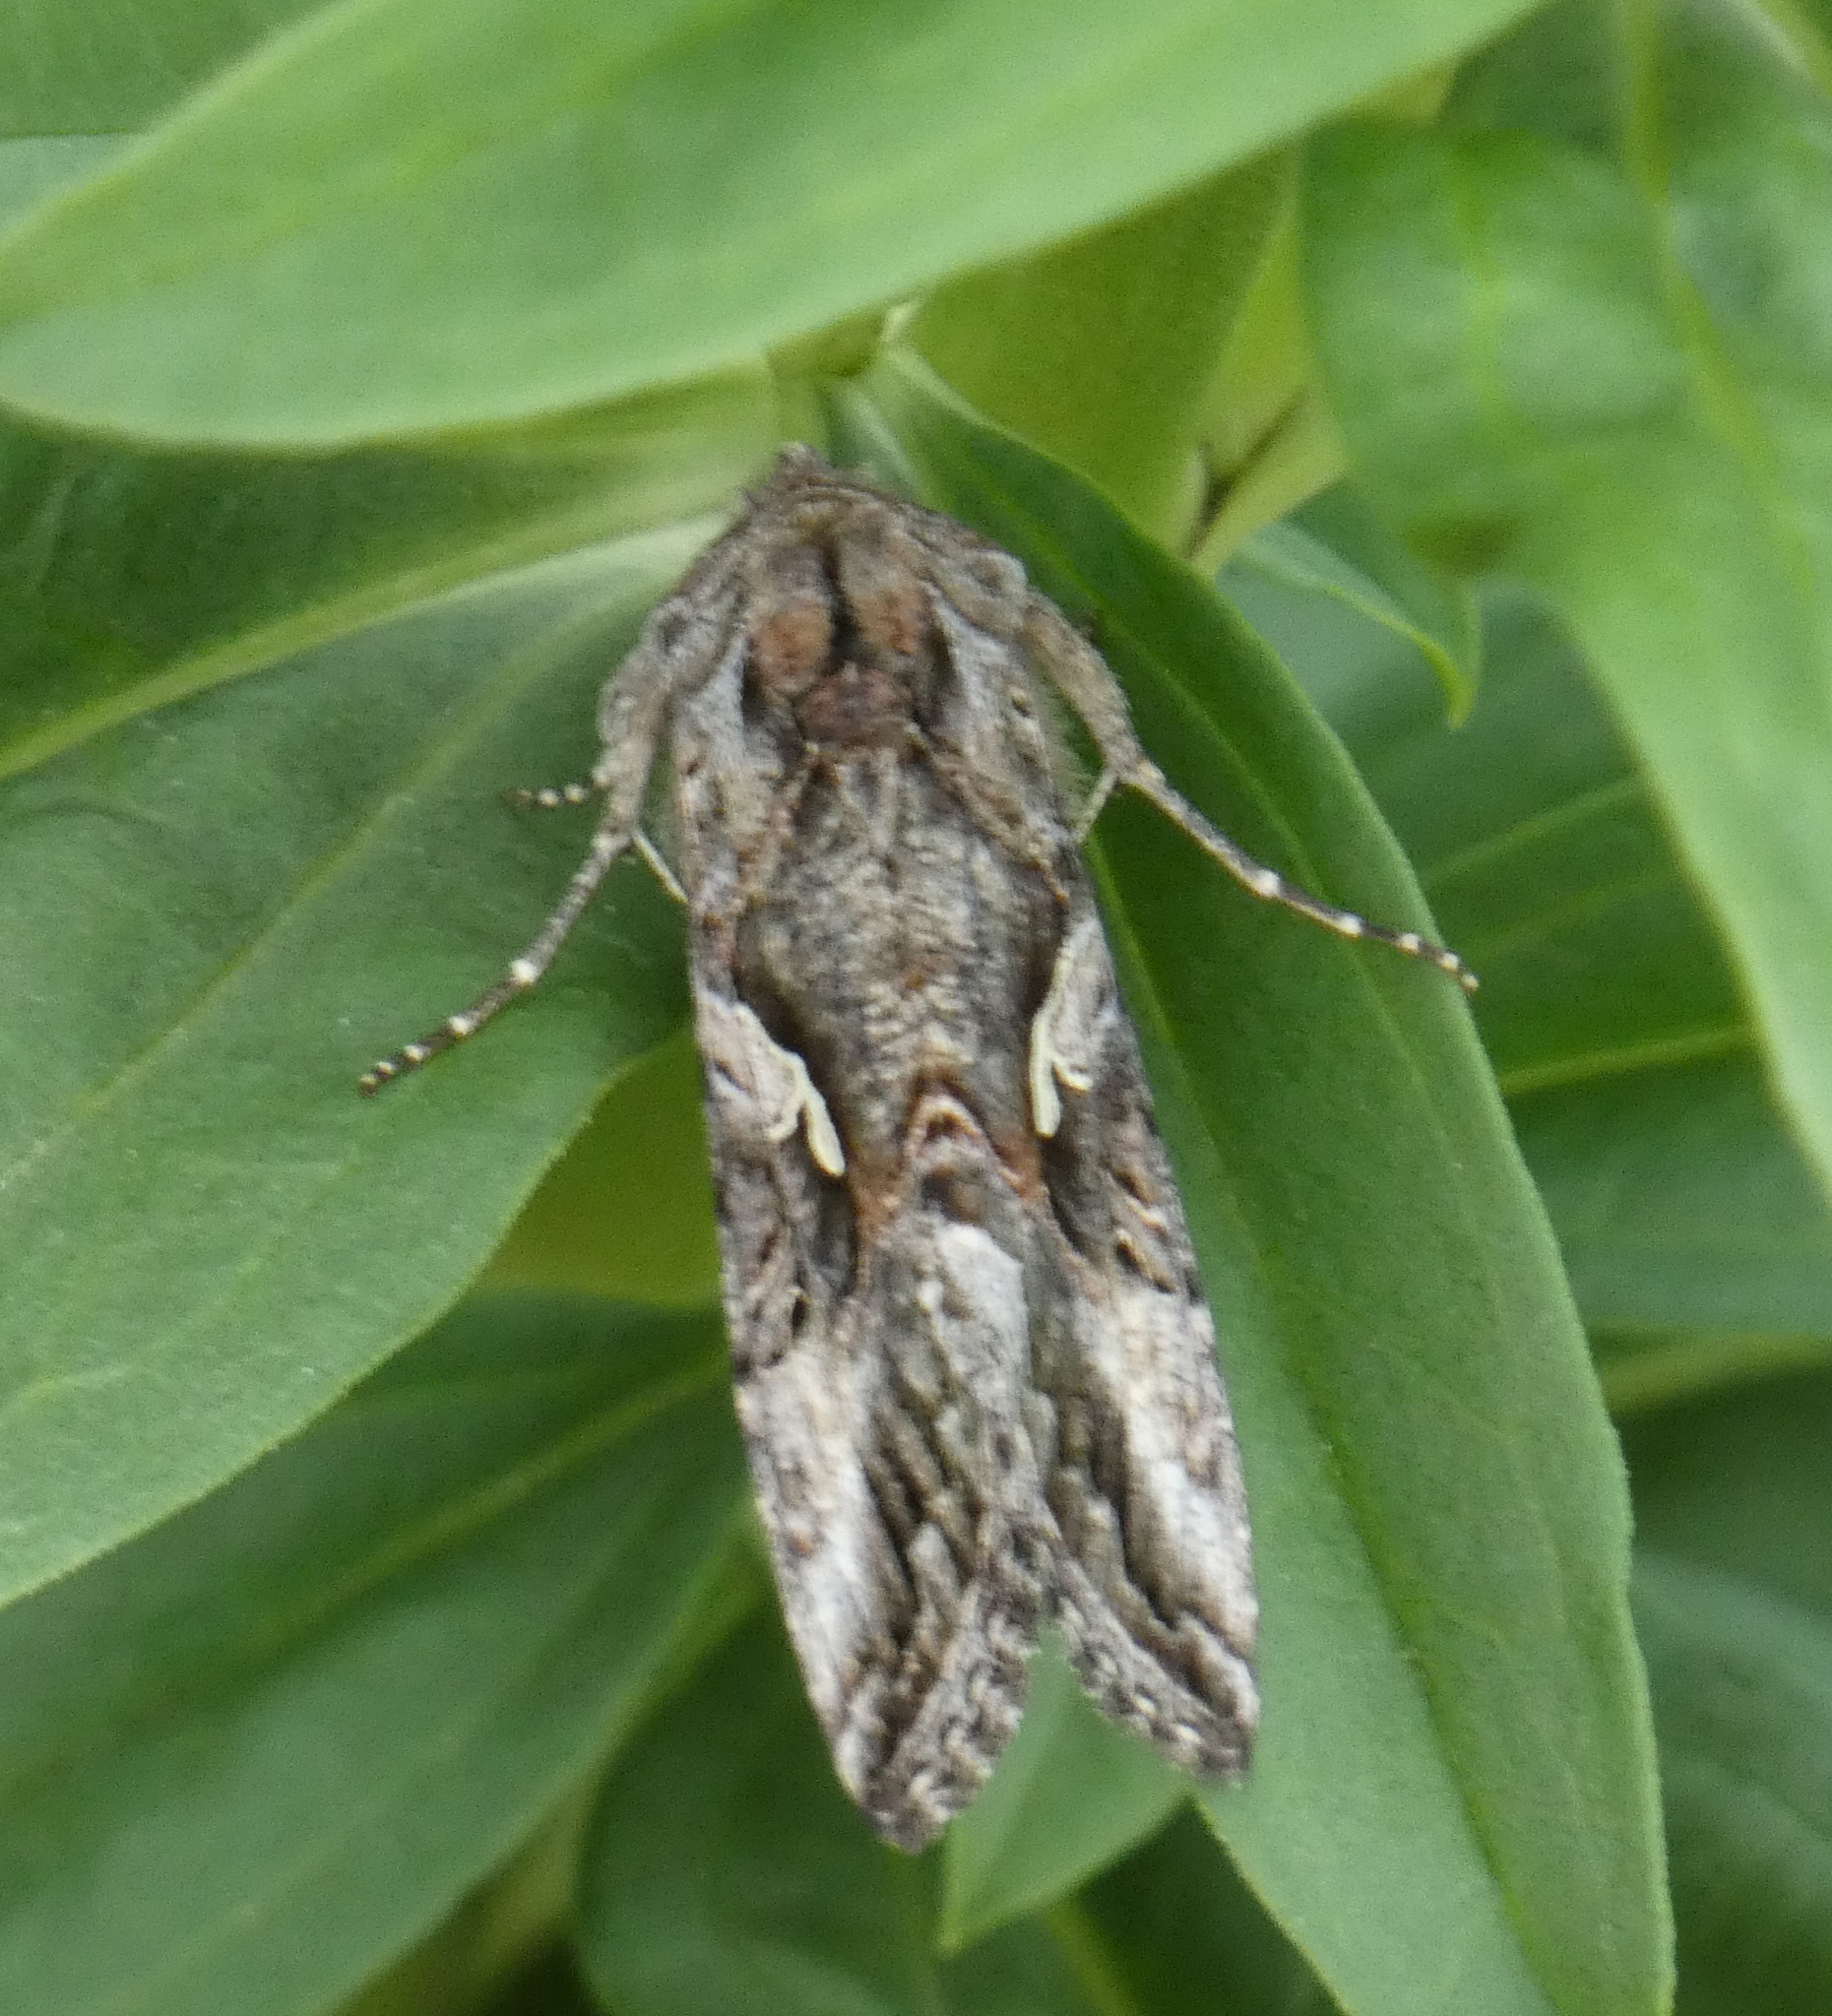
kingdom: Animalia
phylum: Arthropoda
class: Insecta
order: Lepidoptera
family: Noctuidae
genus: Autographa
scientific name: Autographa californica
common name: Alfalfa looper
